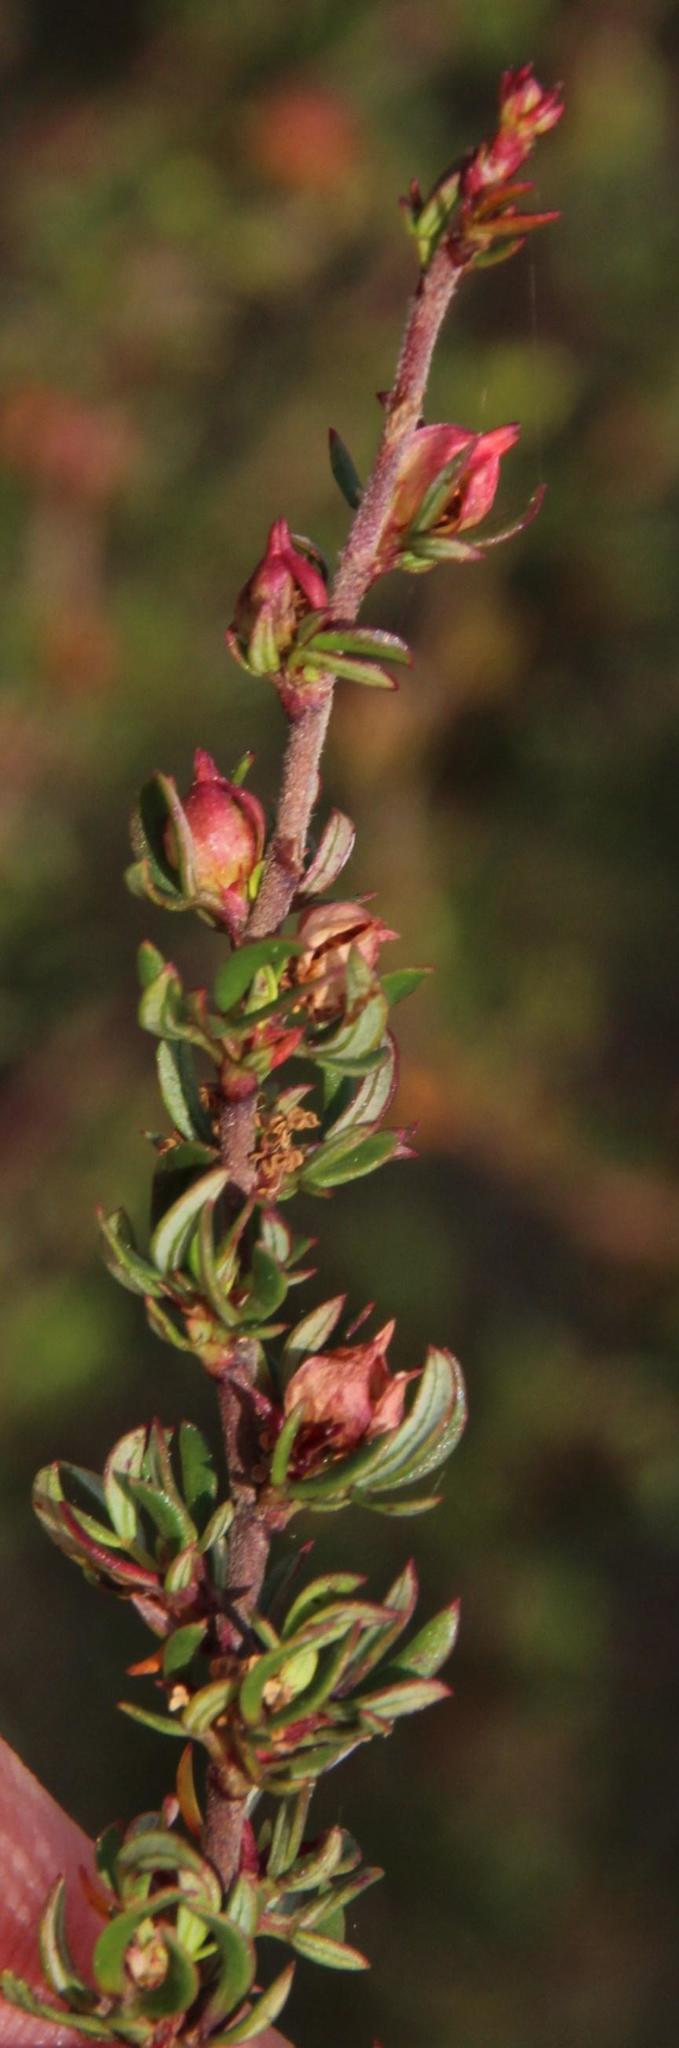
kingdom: Plantae
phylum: Tracheophyta
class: Magnoliopsida
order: Rosales
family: Rosaceae
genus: Cliffortia
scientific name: Cliffortia falcata
